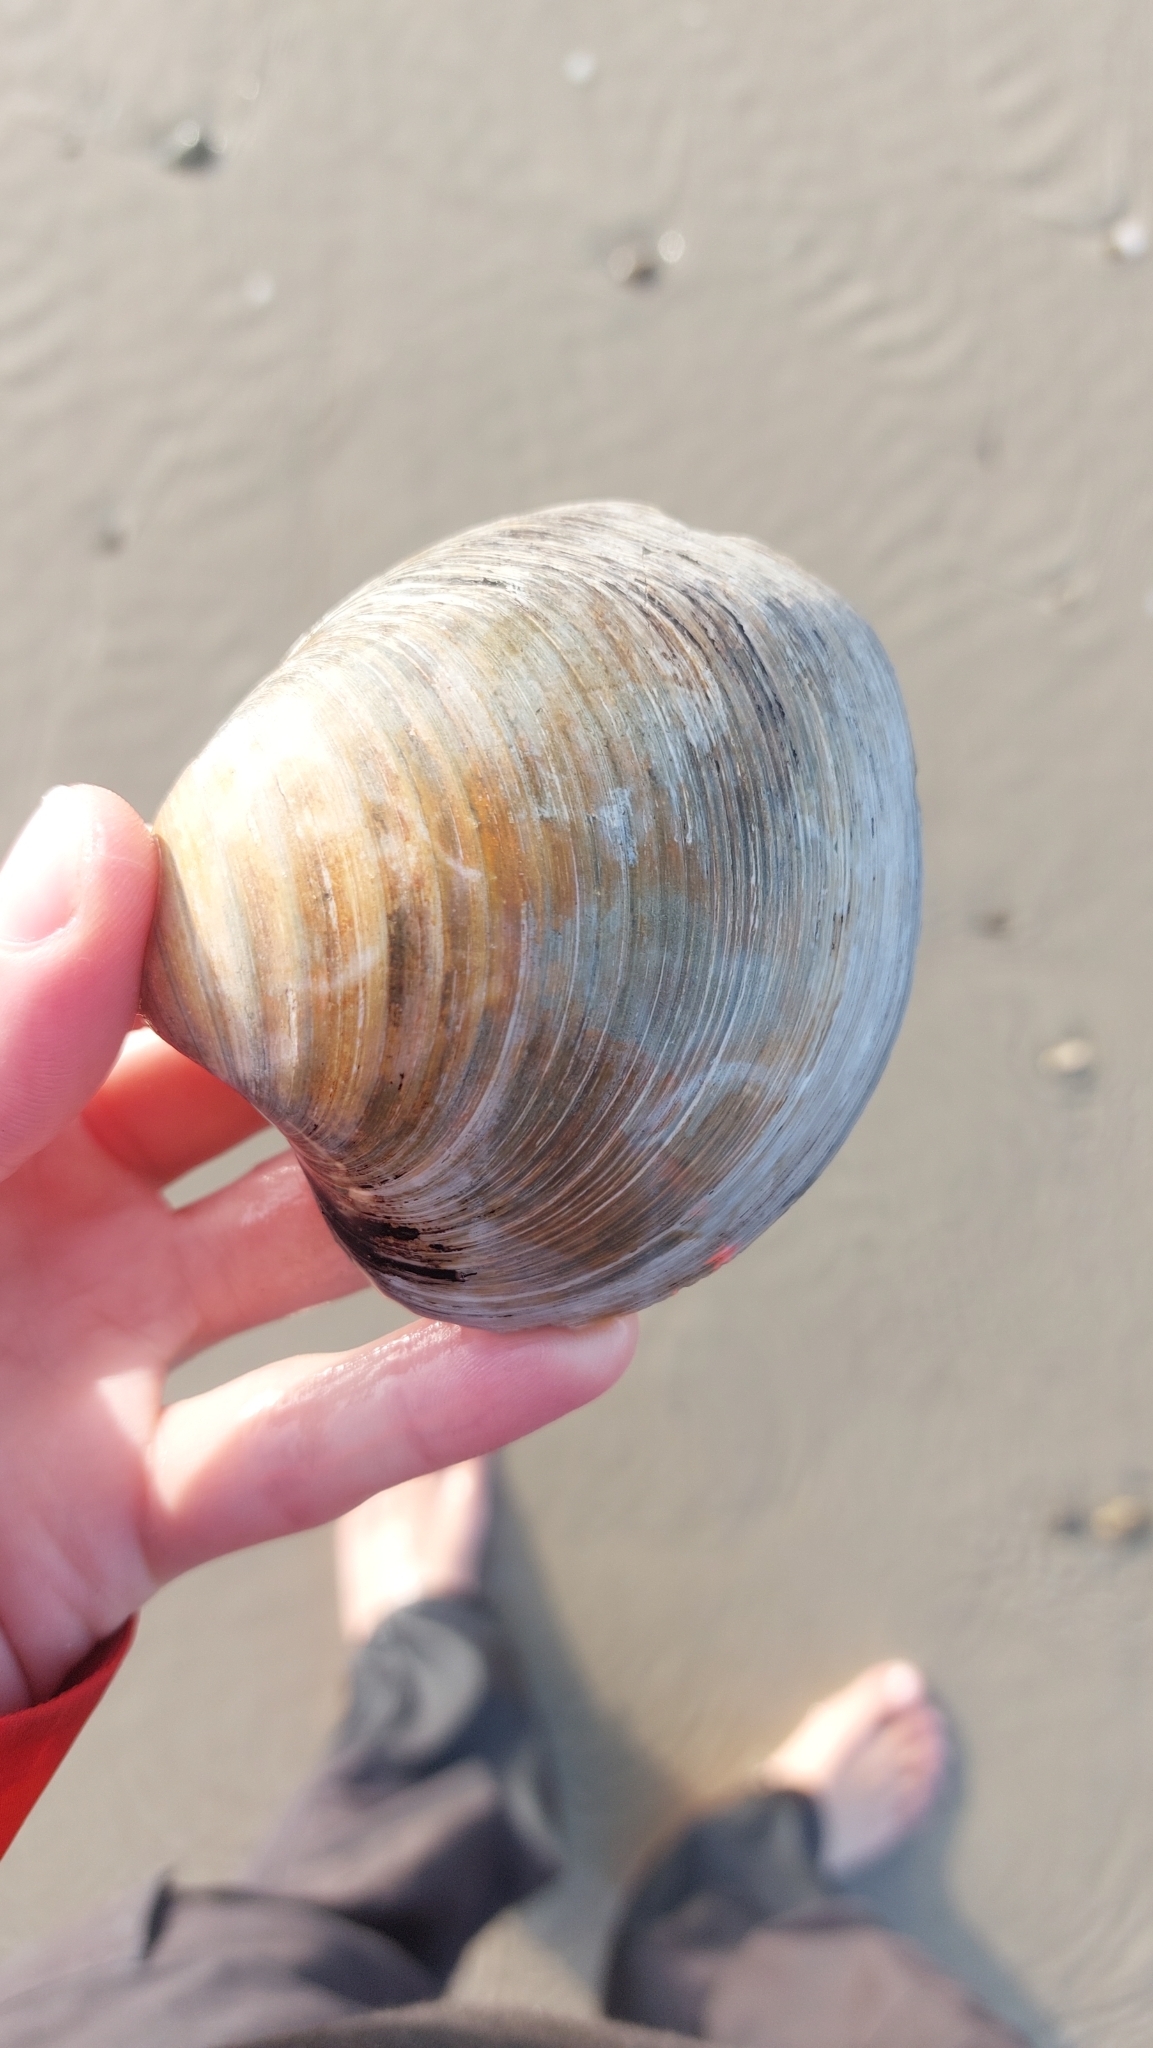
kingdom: Animalia
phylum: Mollusca
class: Bivalvia
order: Venerida
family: Arcticidae
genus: Arctica
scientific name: Arctica islandica
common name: Icelandic cyprine
